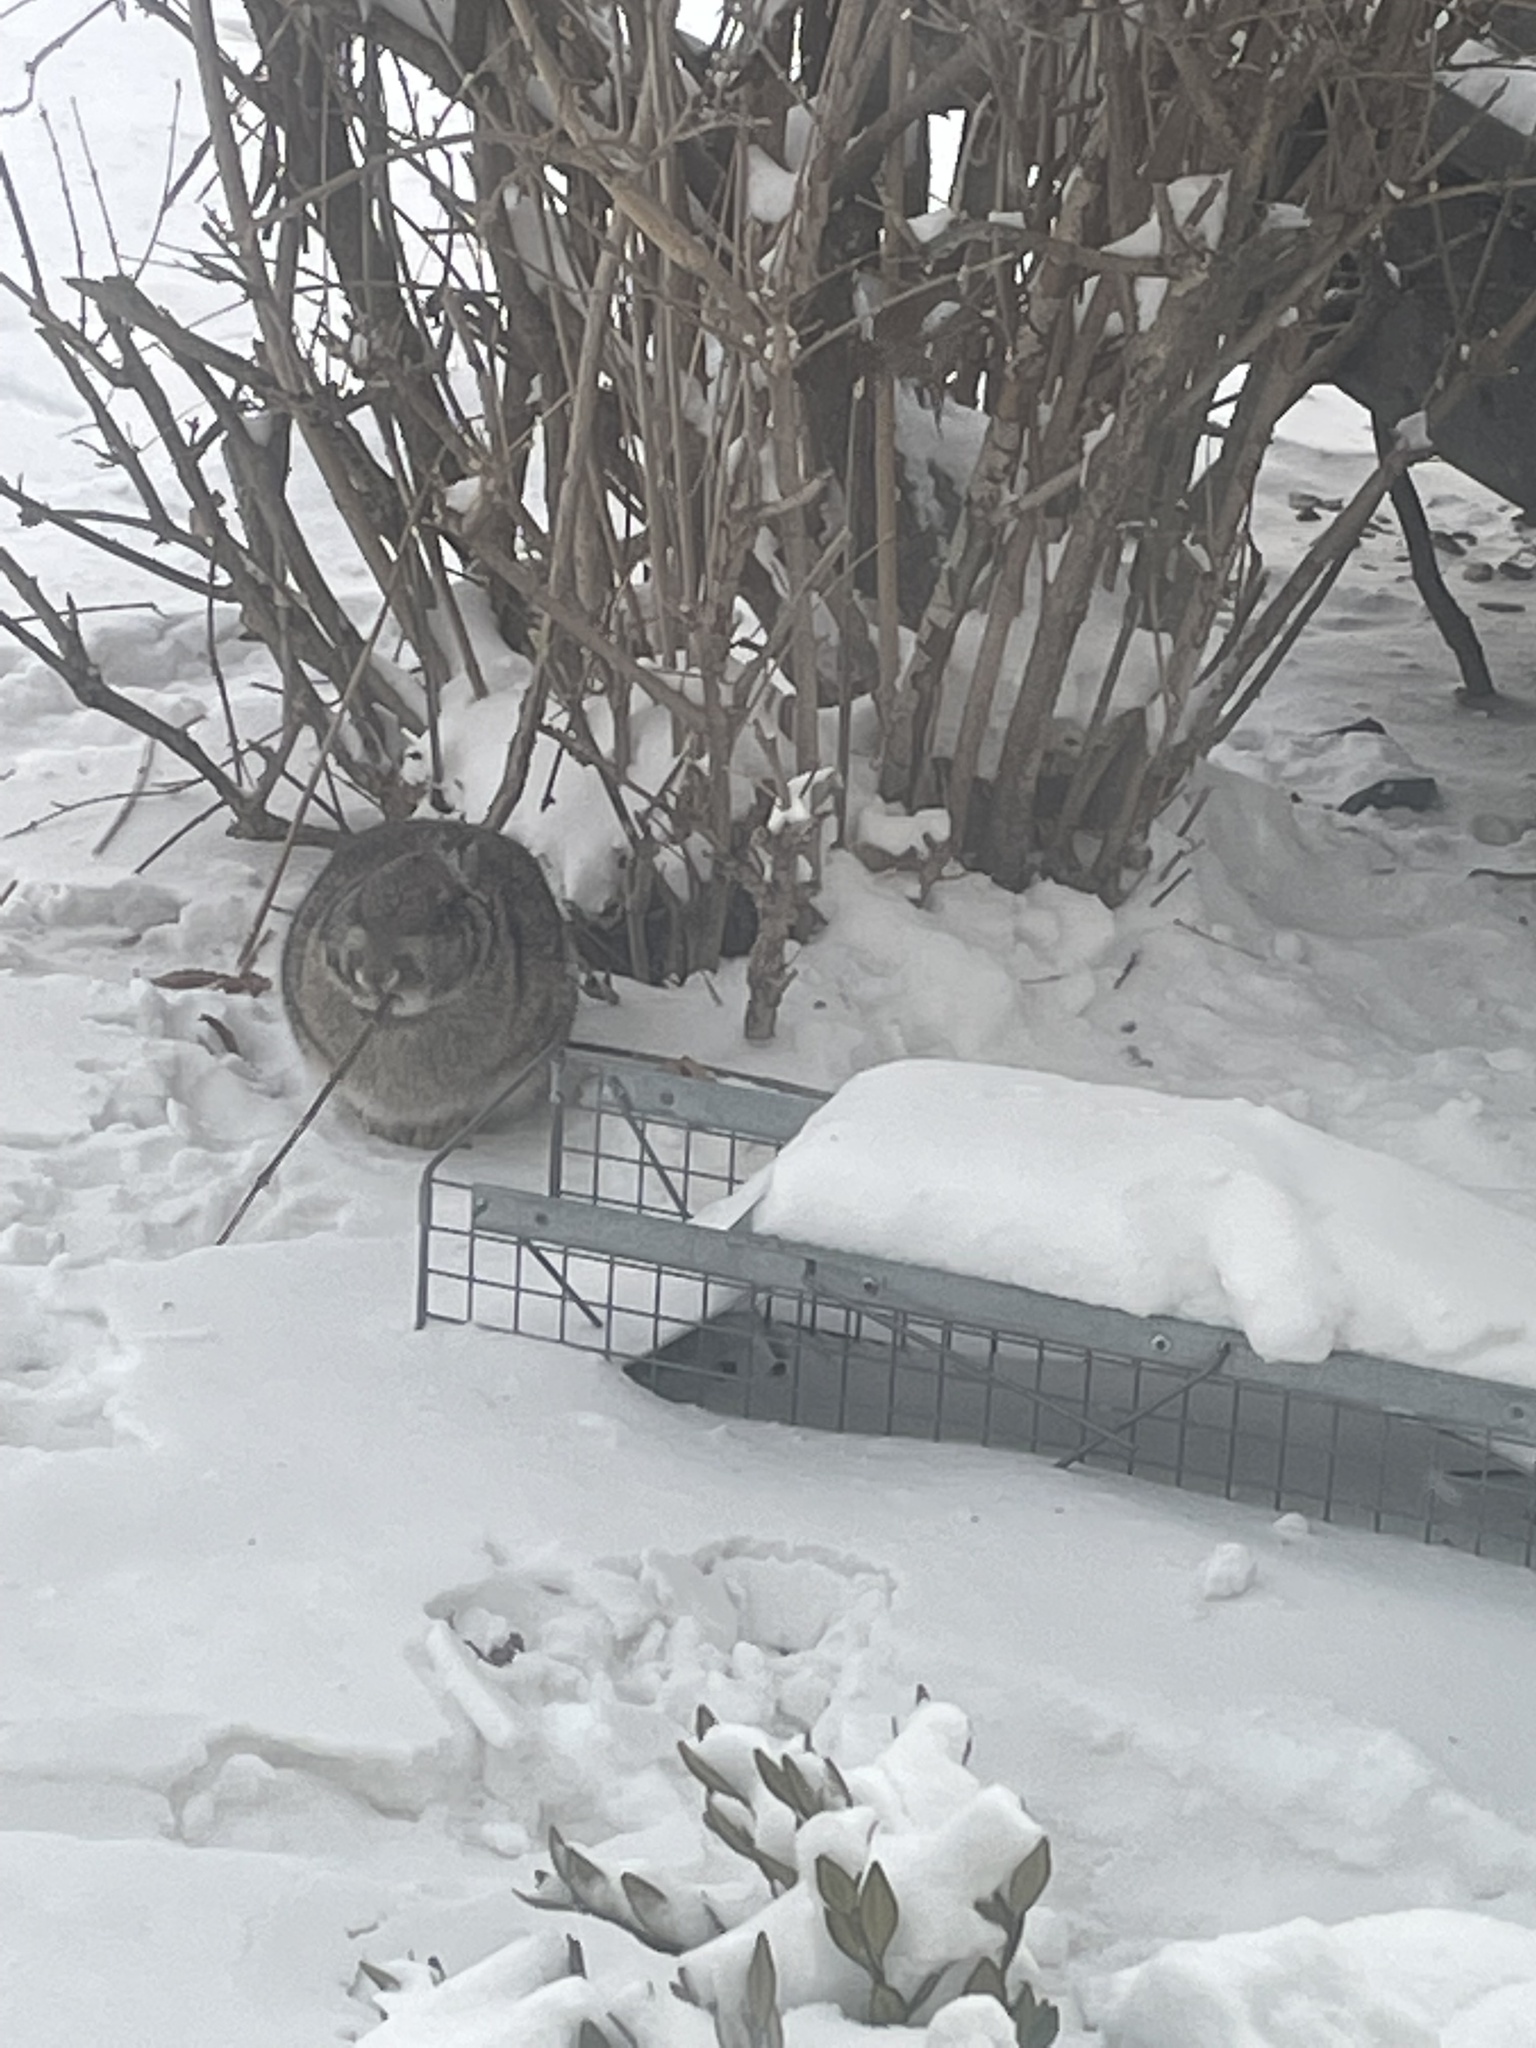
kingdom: Animalia
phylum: Chordata
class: Mammalia
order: Lagomorpha
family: Leporidae
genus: Sylvilagus
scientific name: Sylvilagus floridanus
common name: Eastern cottontail
